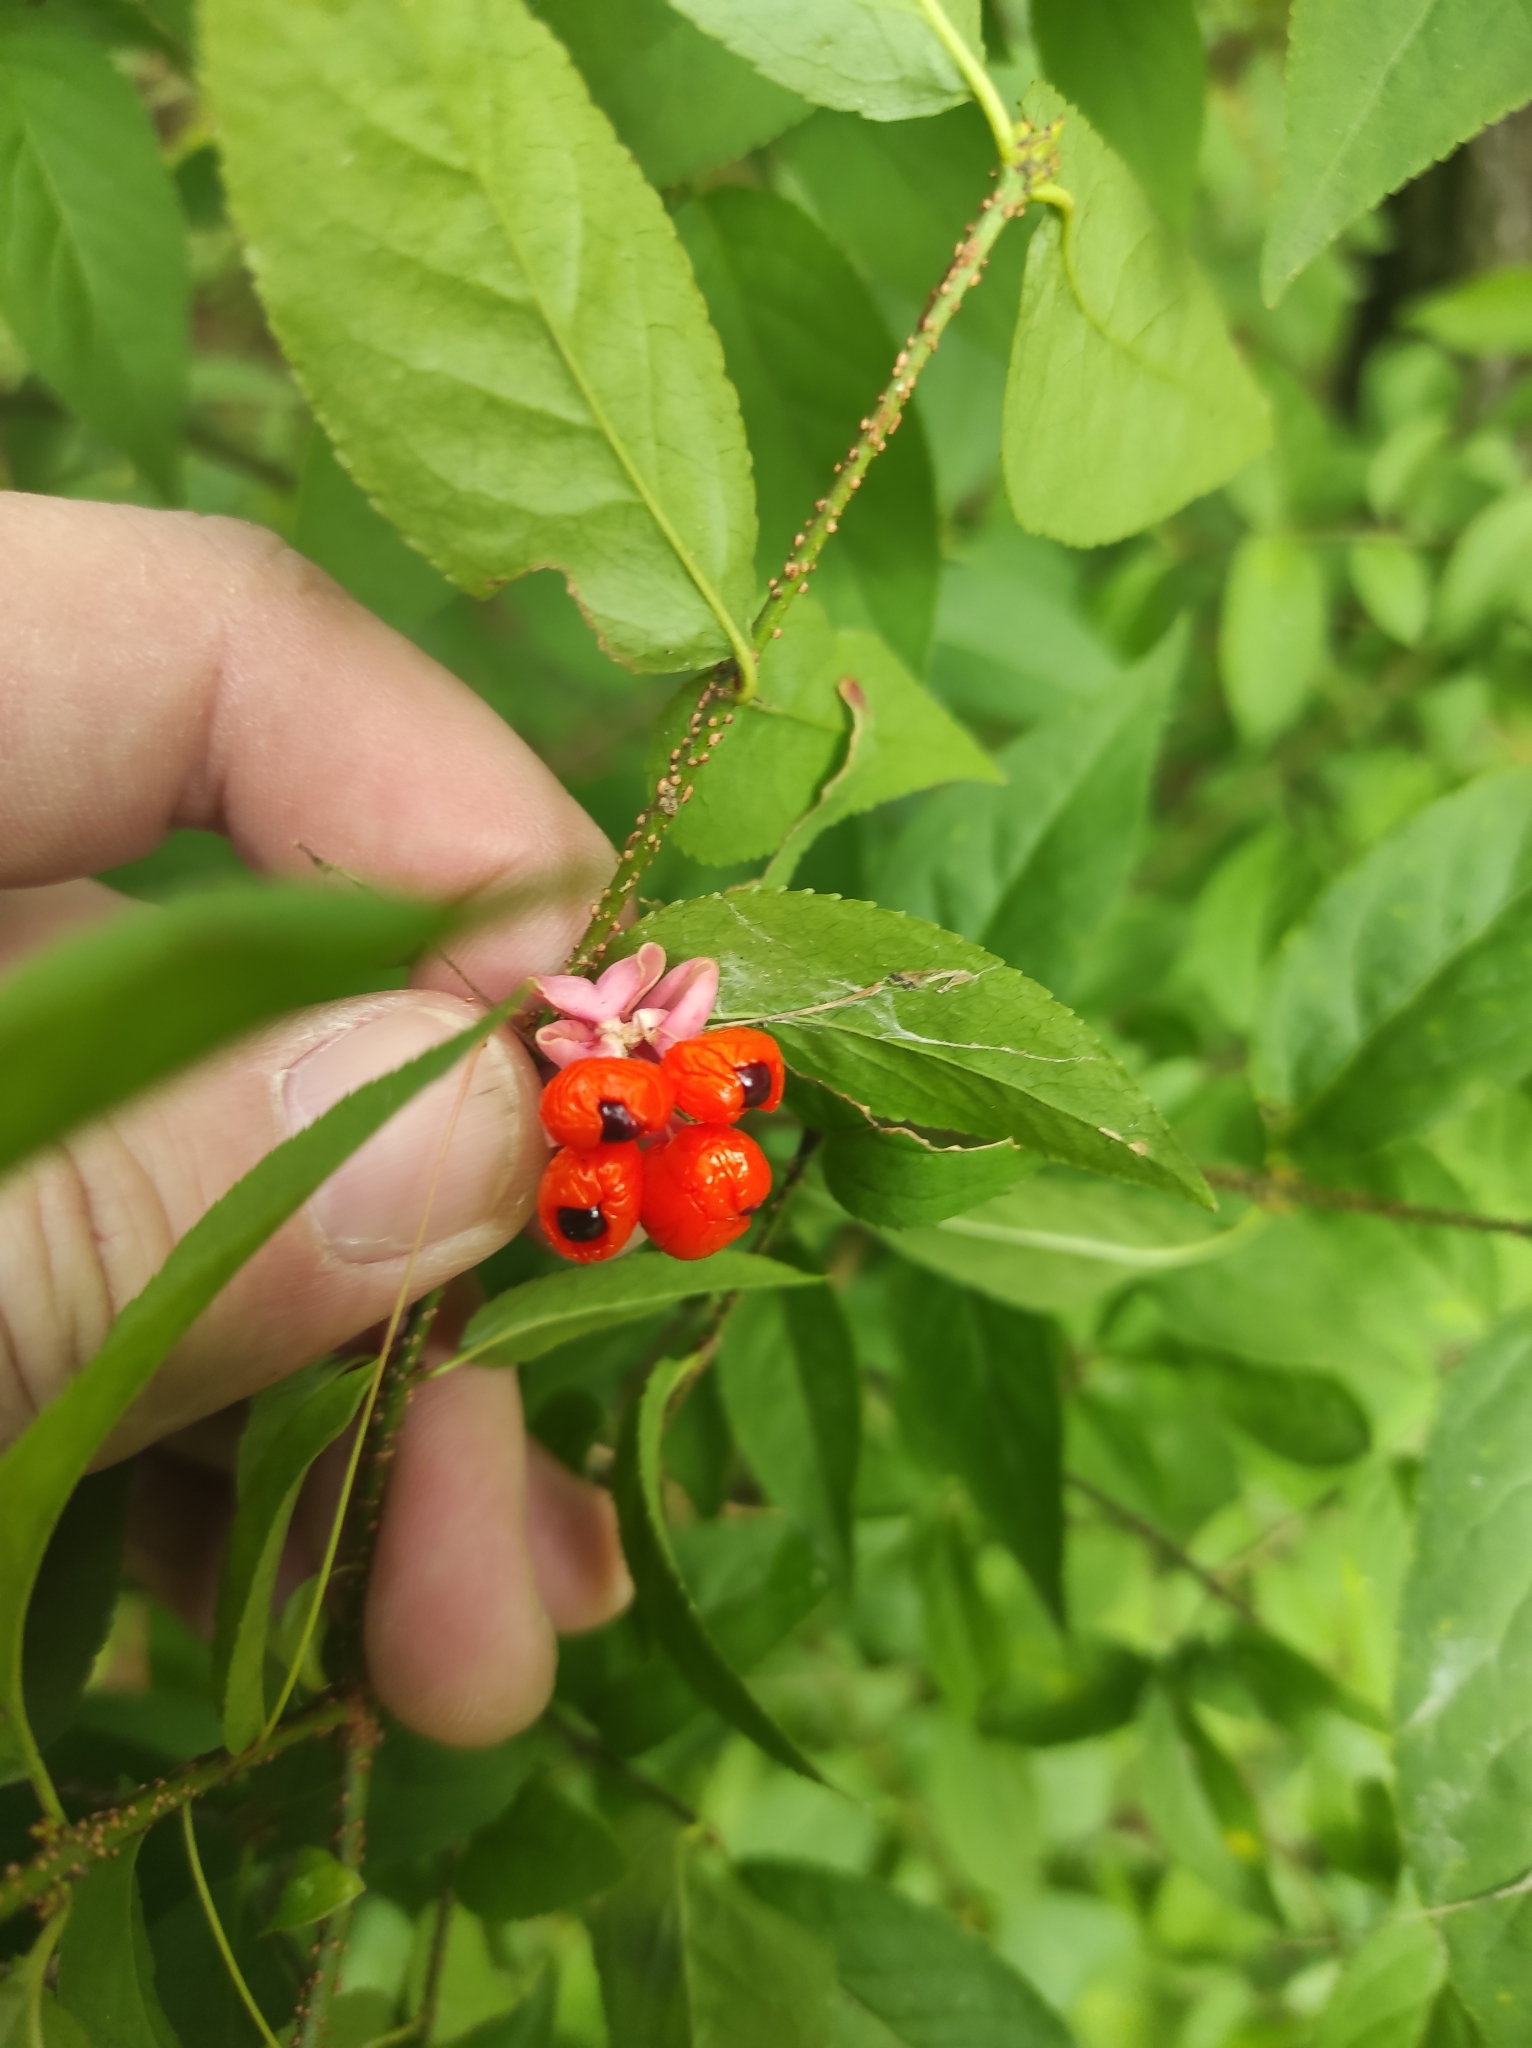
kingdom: Plantae
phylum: Tracheophyta
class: Magnoliopsida
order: Celastrales
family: Celastraceae
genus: Euonymus
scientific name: Euonymus verrucosus
